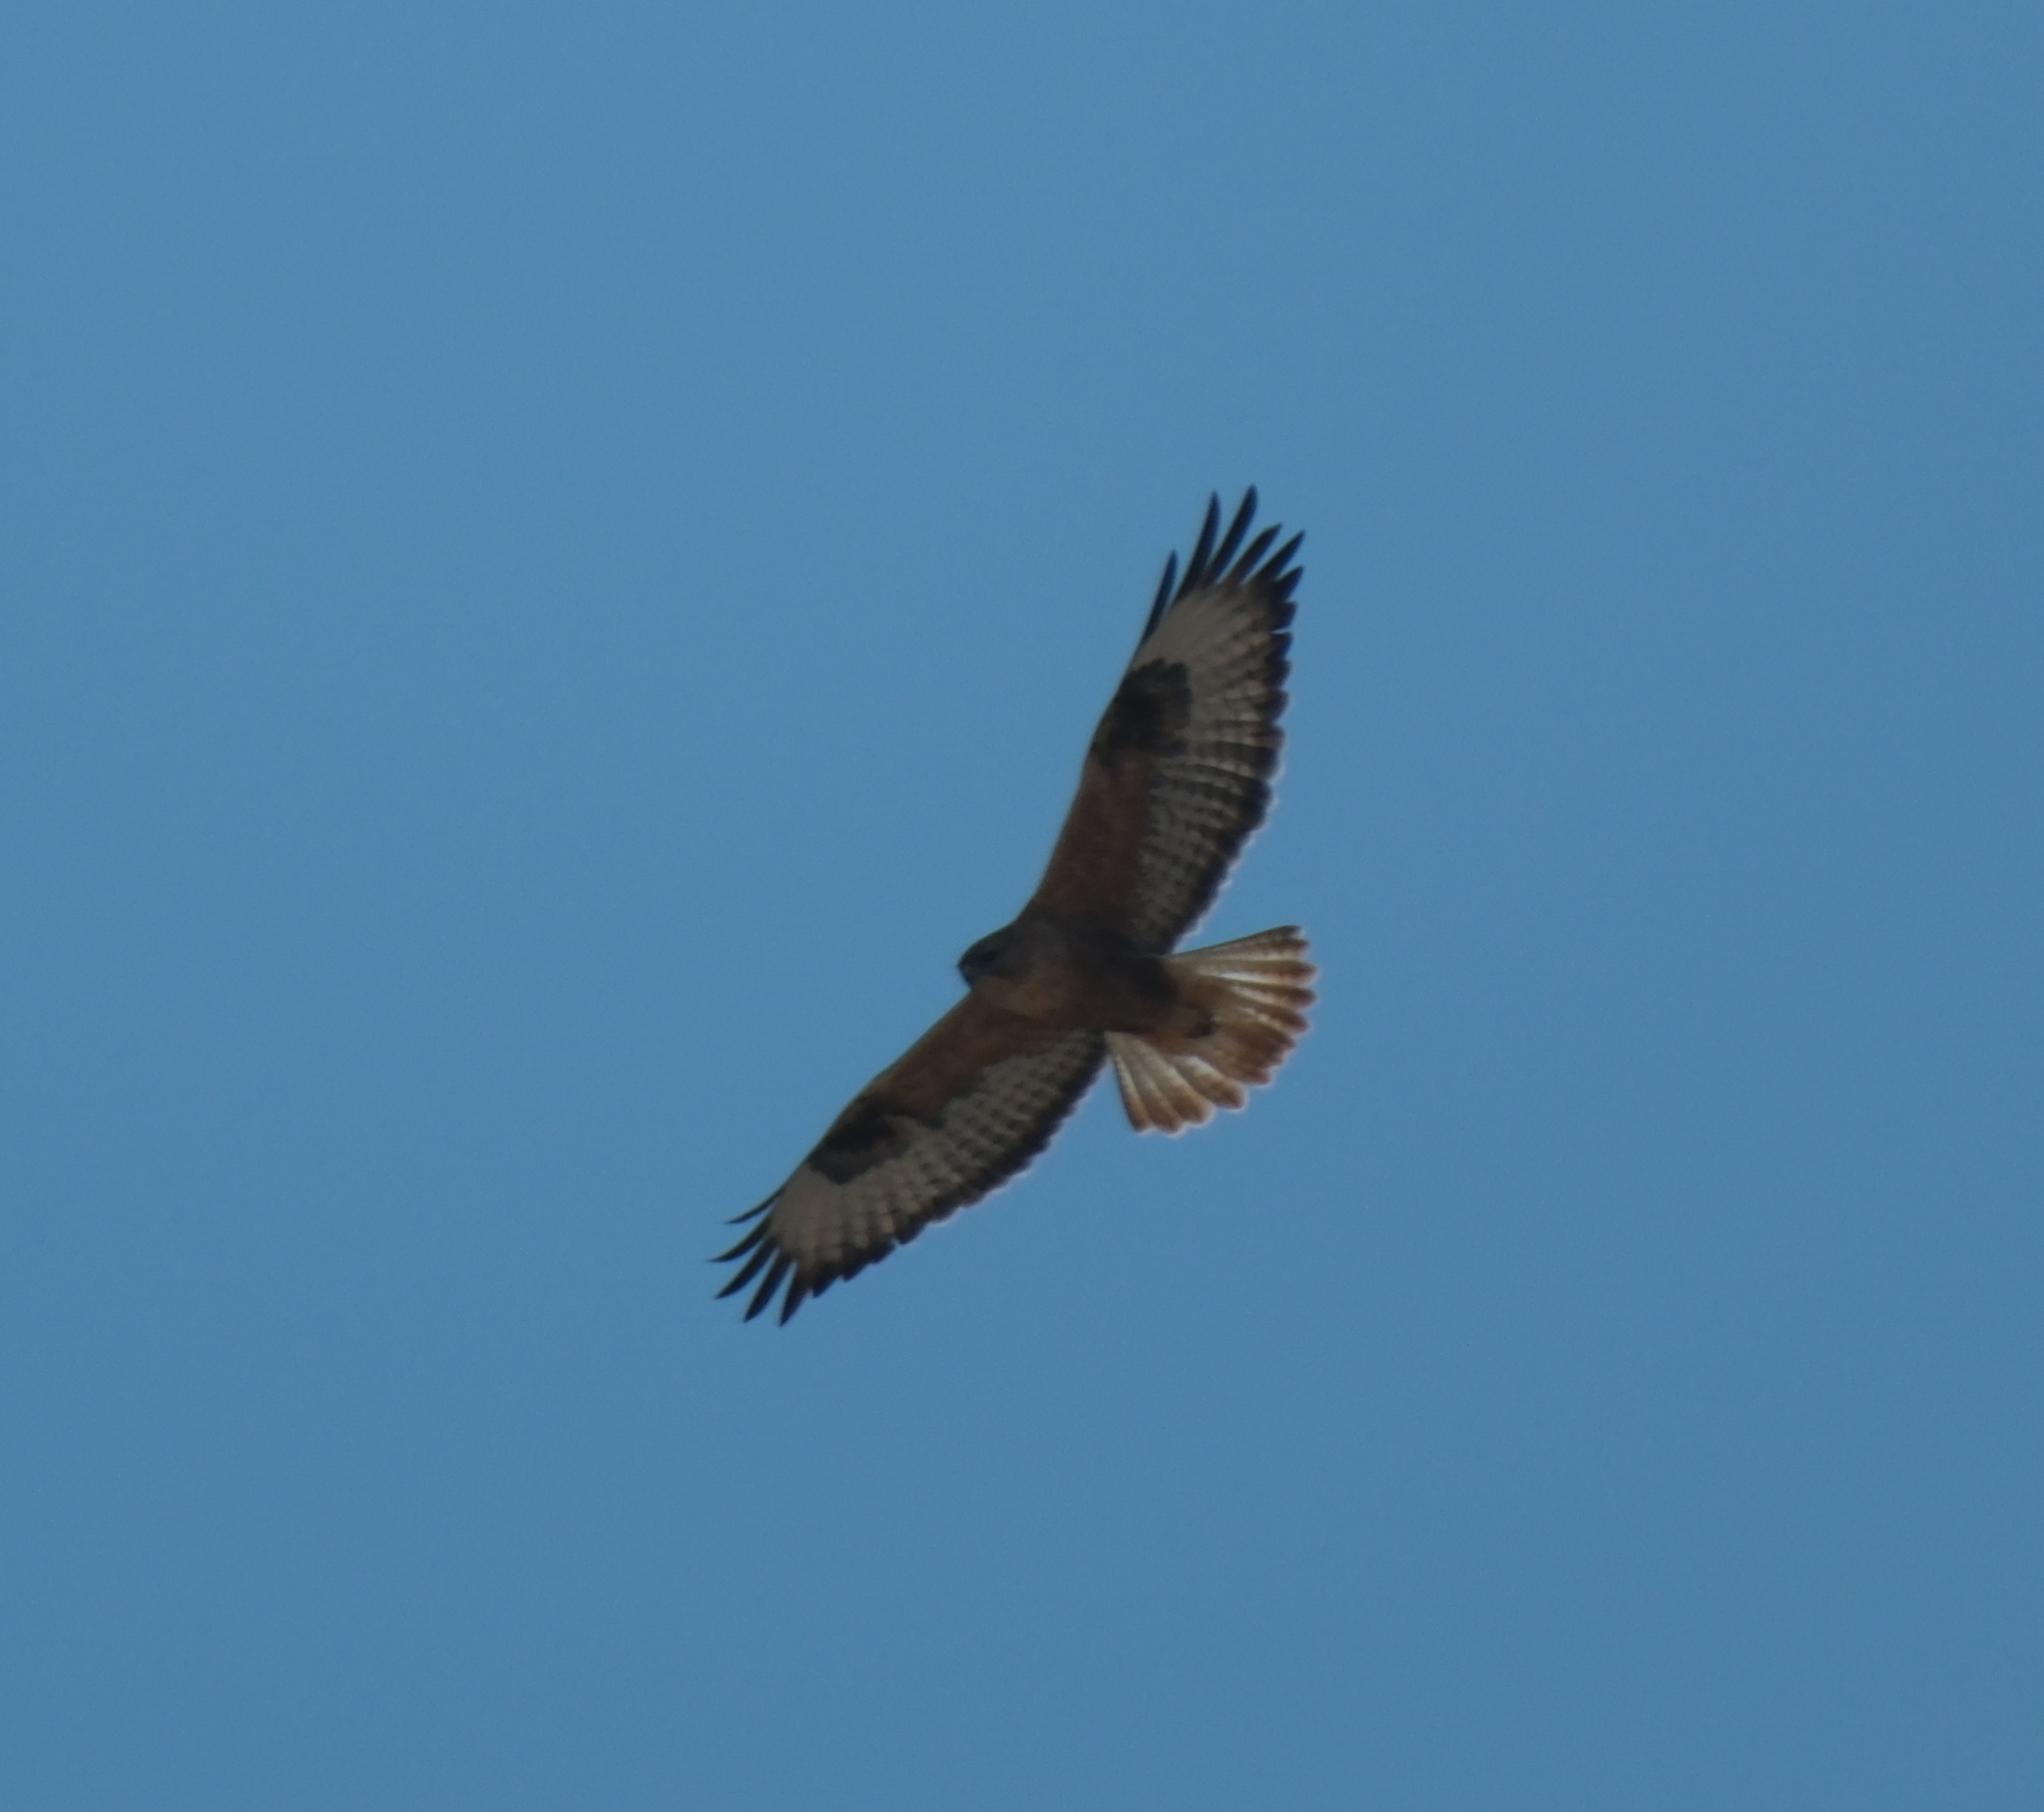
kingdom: Animalia
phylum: Chordata
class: Aves
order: Accipitriformes
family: Accipitridae
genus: Buteo
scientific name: Buteo rufinus
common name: Long-legged buzzard
